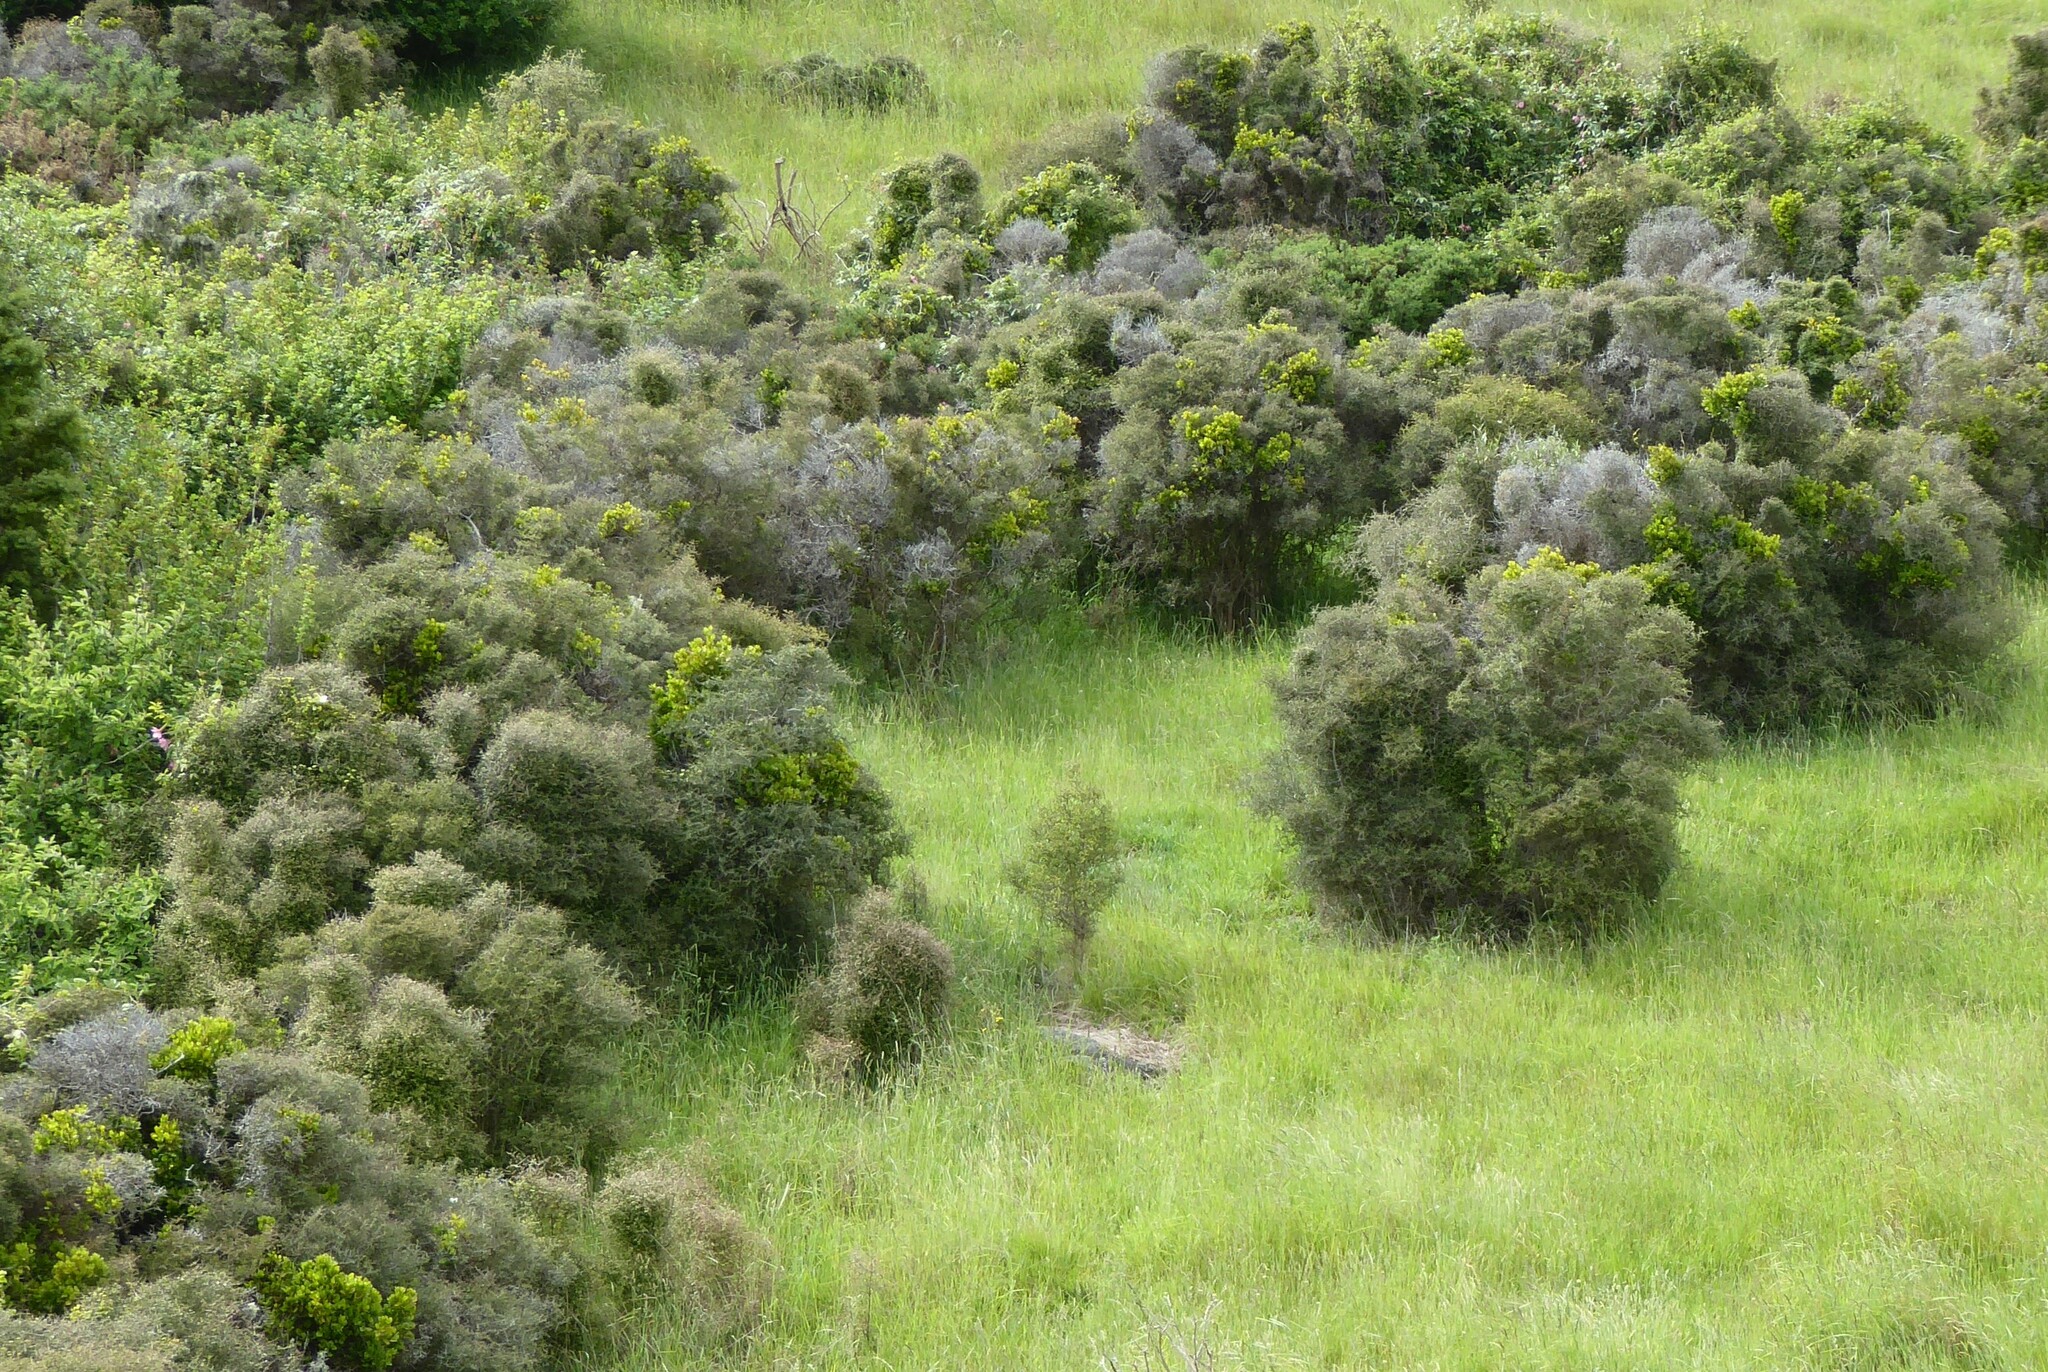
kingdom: Plantae
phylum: Tracheophyta
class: Magnoliopsida
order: Santalales
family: Loranthaceae
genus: Ileostylus
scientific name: Ileostylus micranthus
